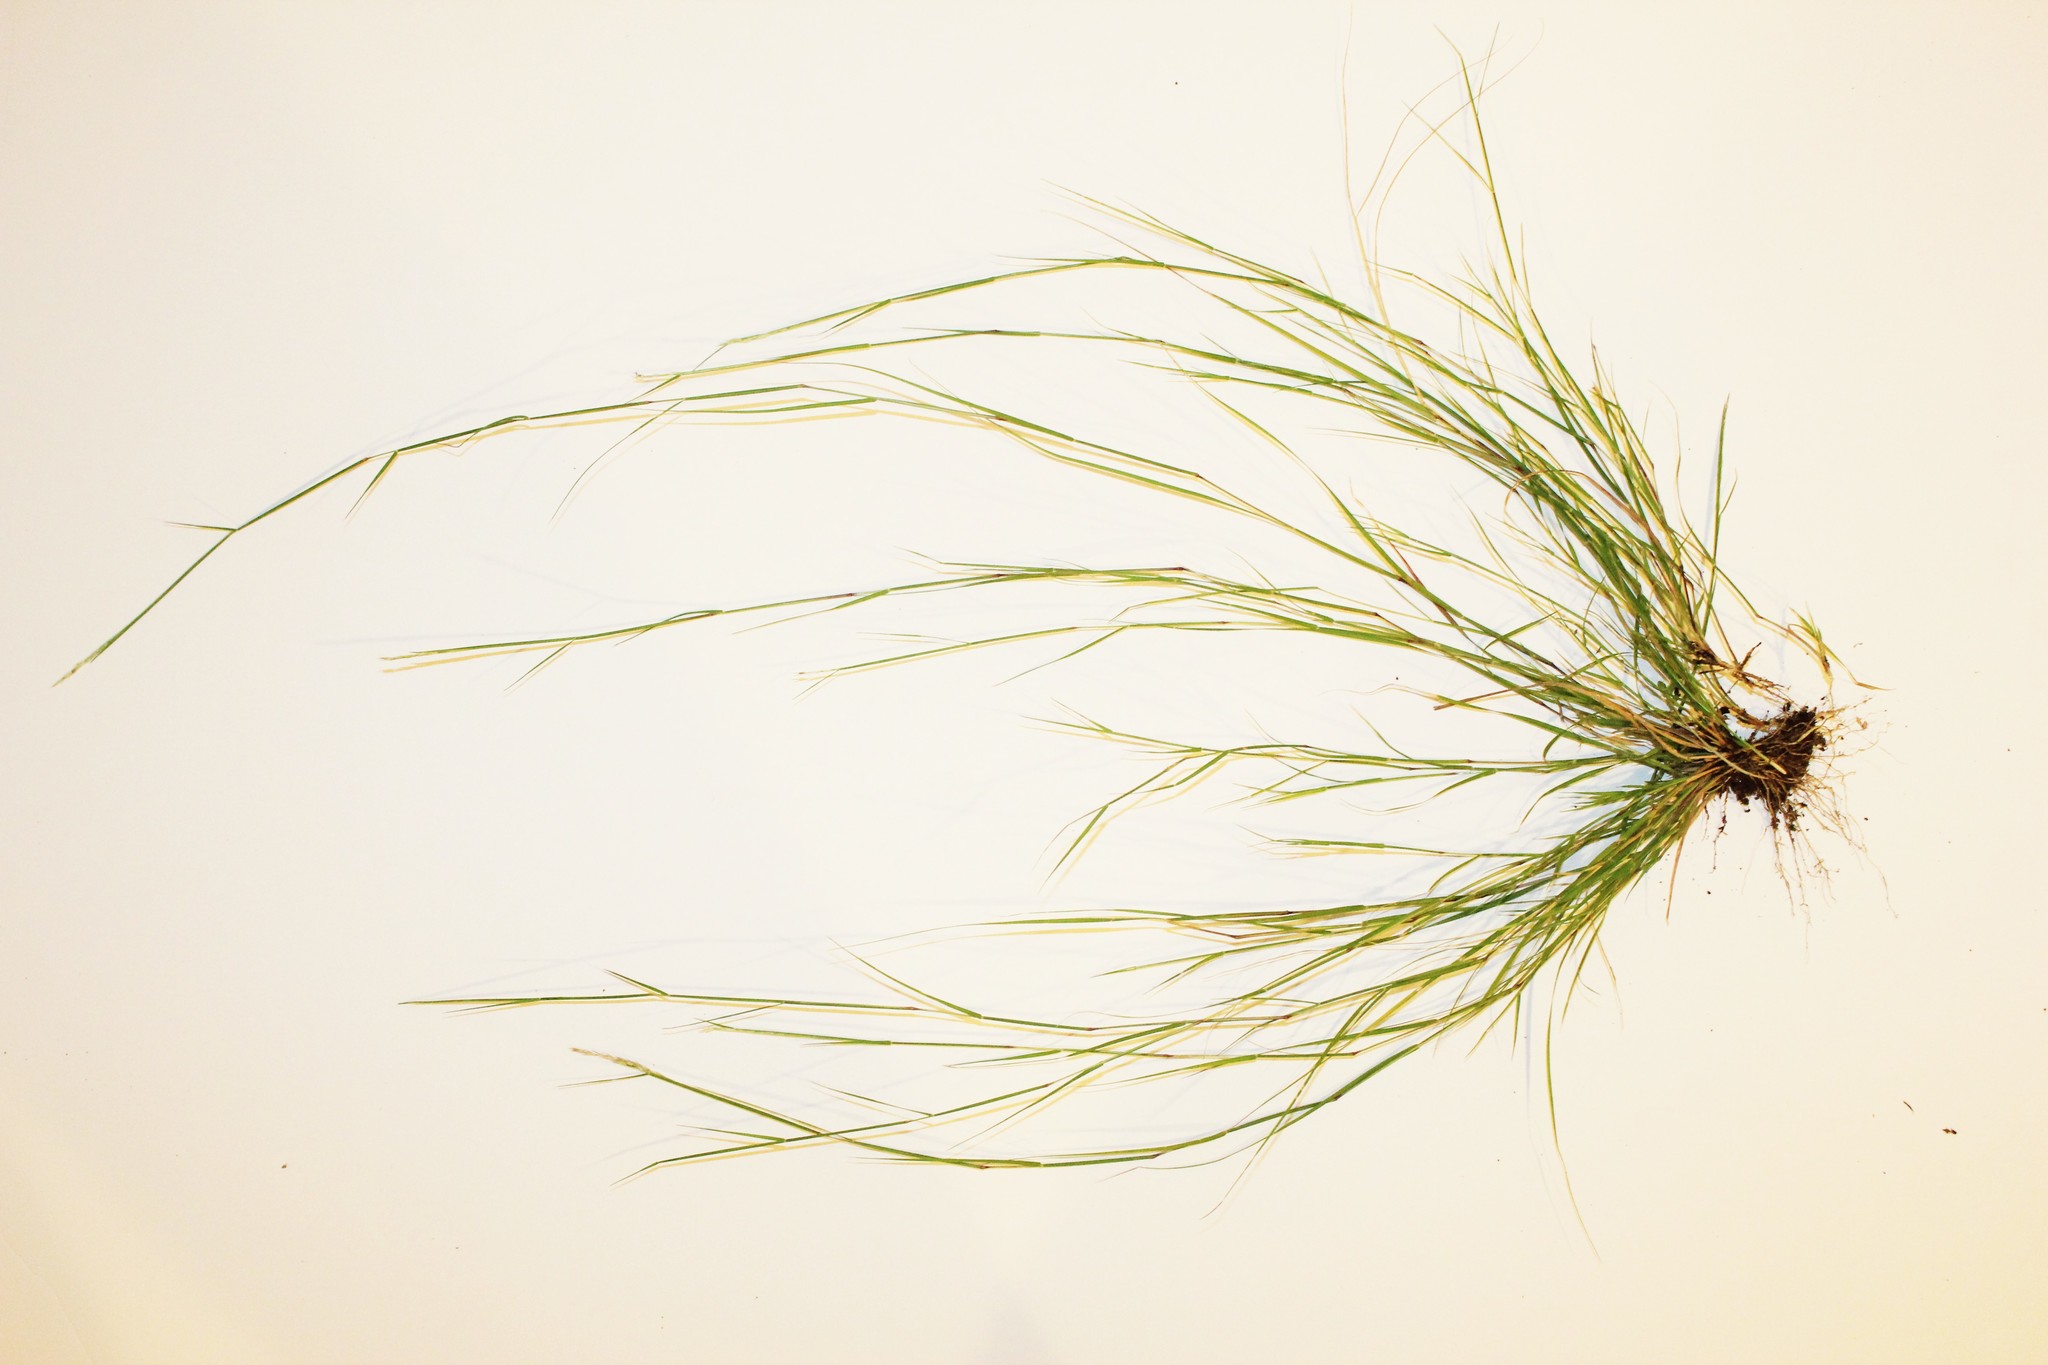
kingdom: Plantae
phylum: Tracheophyta
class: Liliopsida
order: Poales
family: Poaceae
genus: Sporobolus
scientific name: Sporobolus vaginiflorus
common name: Poverty dropseed
